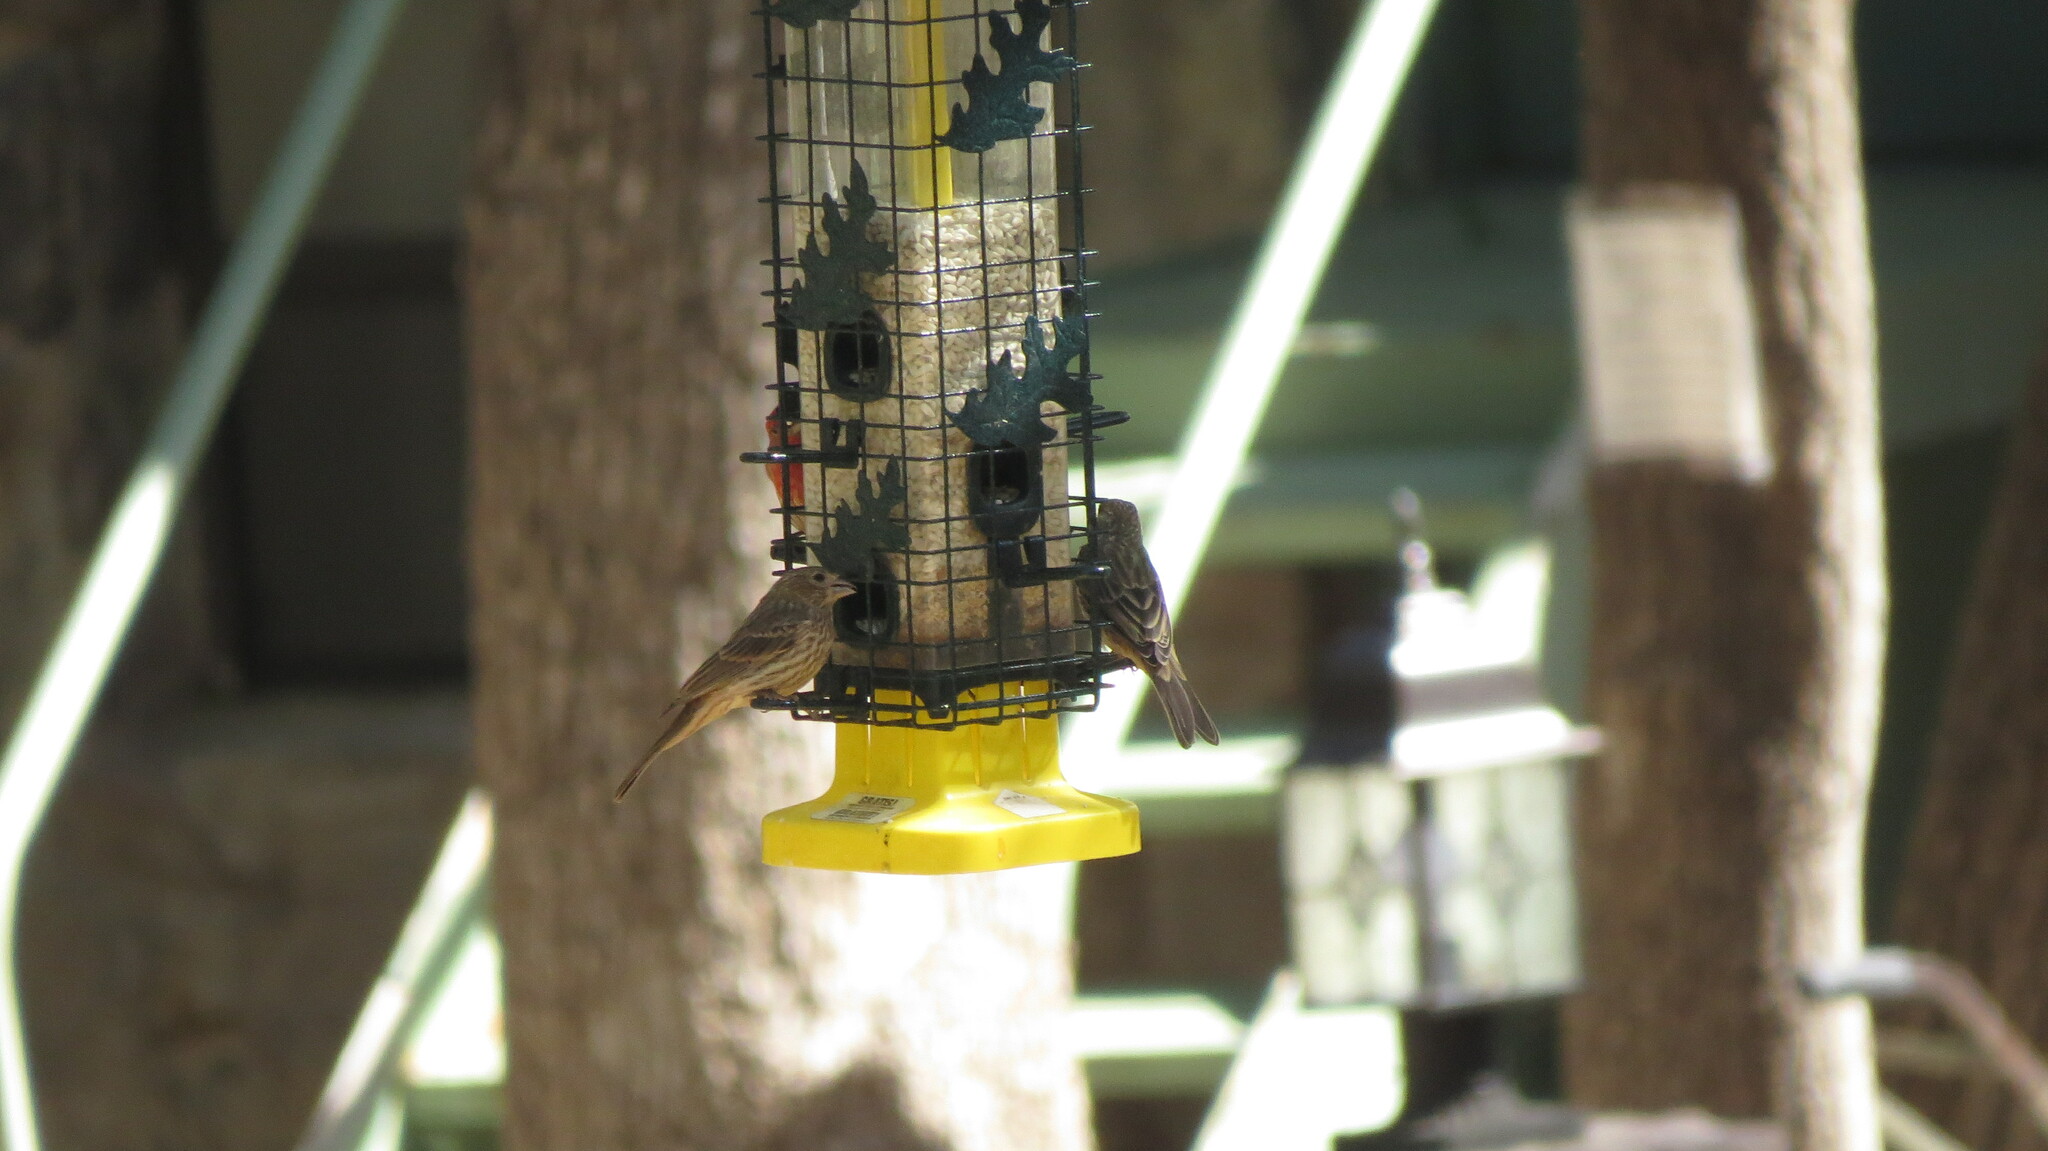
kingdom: Animalia
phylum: Chordata
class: Aves
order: Passeriformes
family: Fringillidae
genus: Haemorhous
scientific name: Haemorhous mexicanus
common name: House finch
